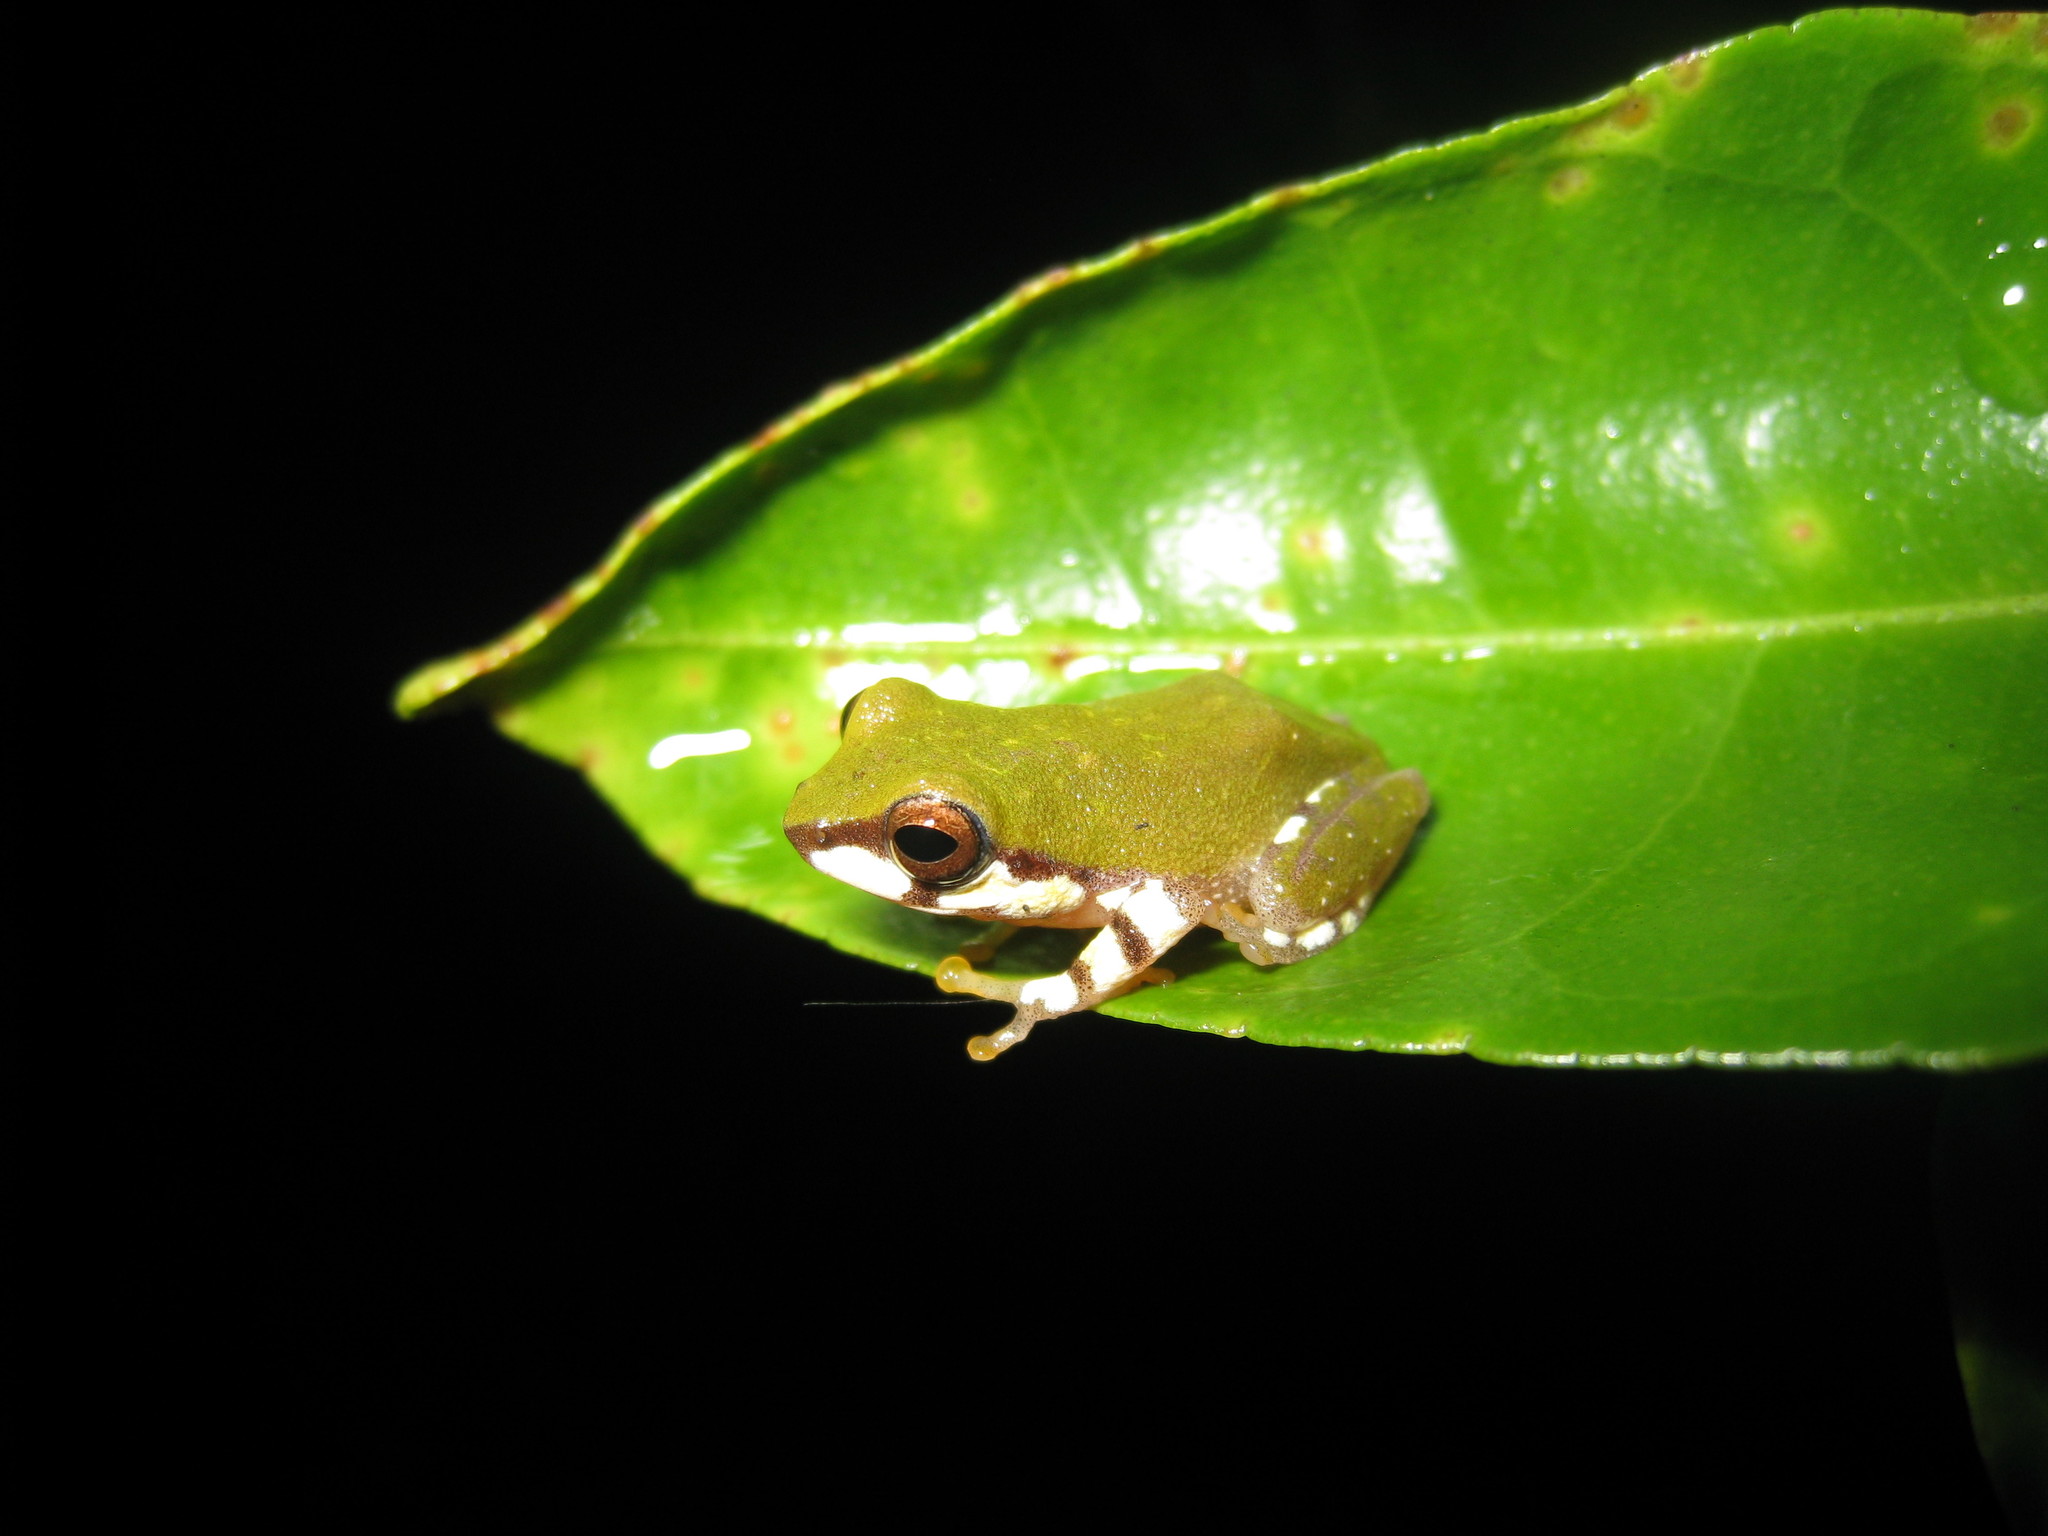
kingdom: Animalia
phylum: Chordata
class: Amphibia
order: Anura
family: Rhacophoridae
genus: Raorchestes
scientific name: Raorchestes akroparallagi
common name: Variable bush frog
